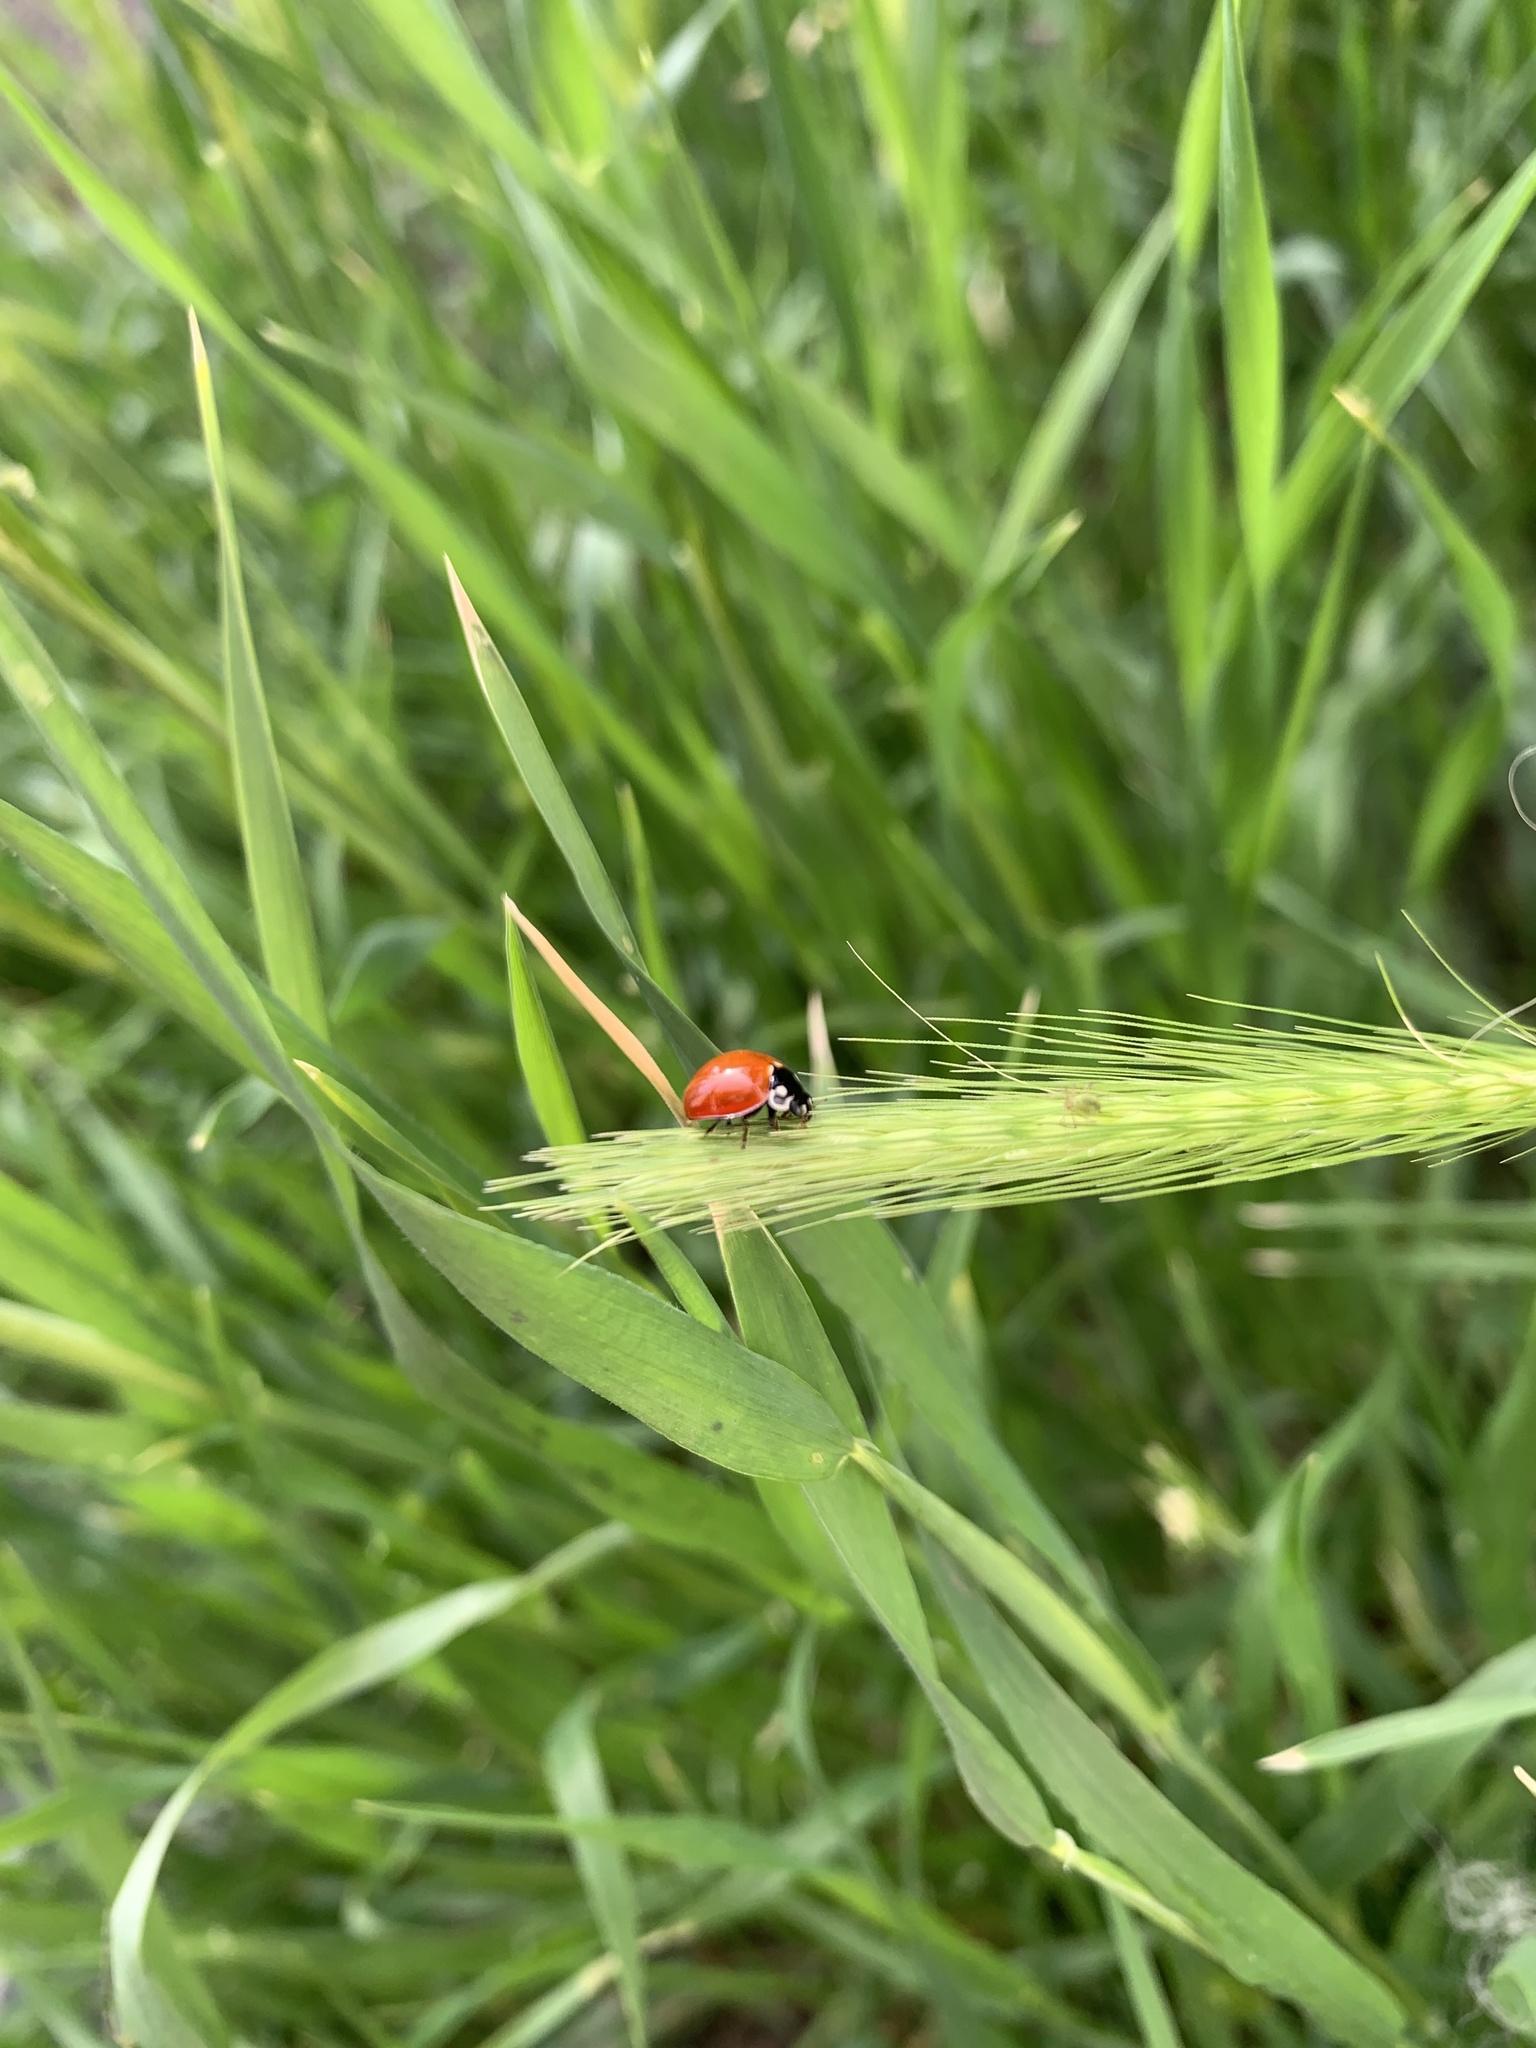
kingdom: Animalia
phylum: Arthropoda
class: Insecta
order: Coleoptera
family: Coccinellidae
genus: Cycloneda
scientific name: Cycloneda sanguinea
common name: Ladybird beetle
